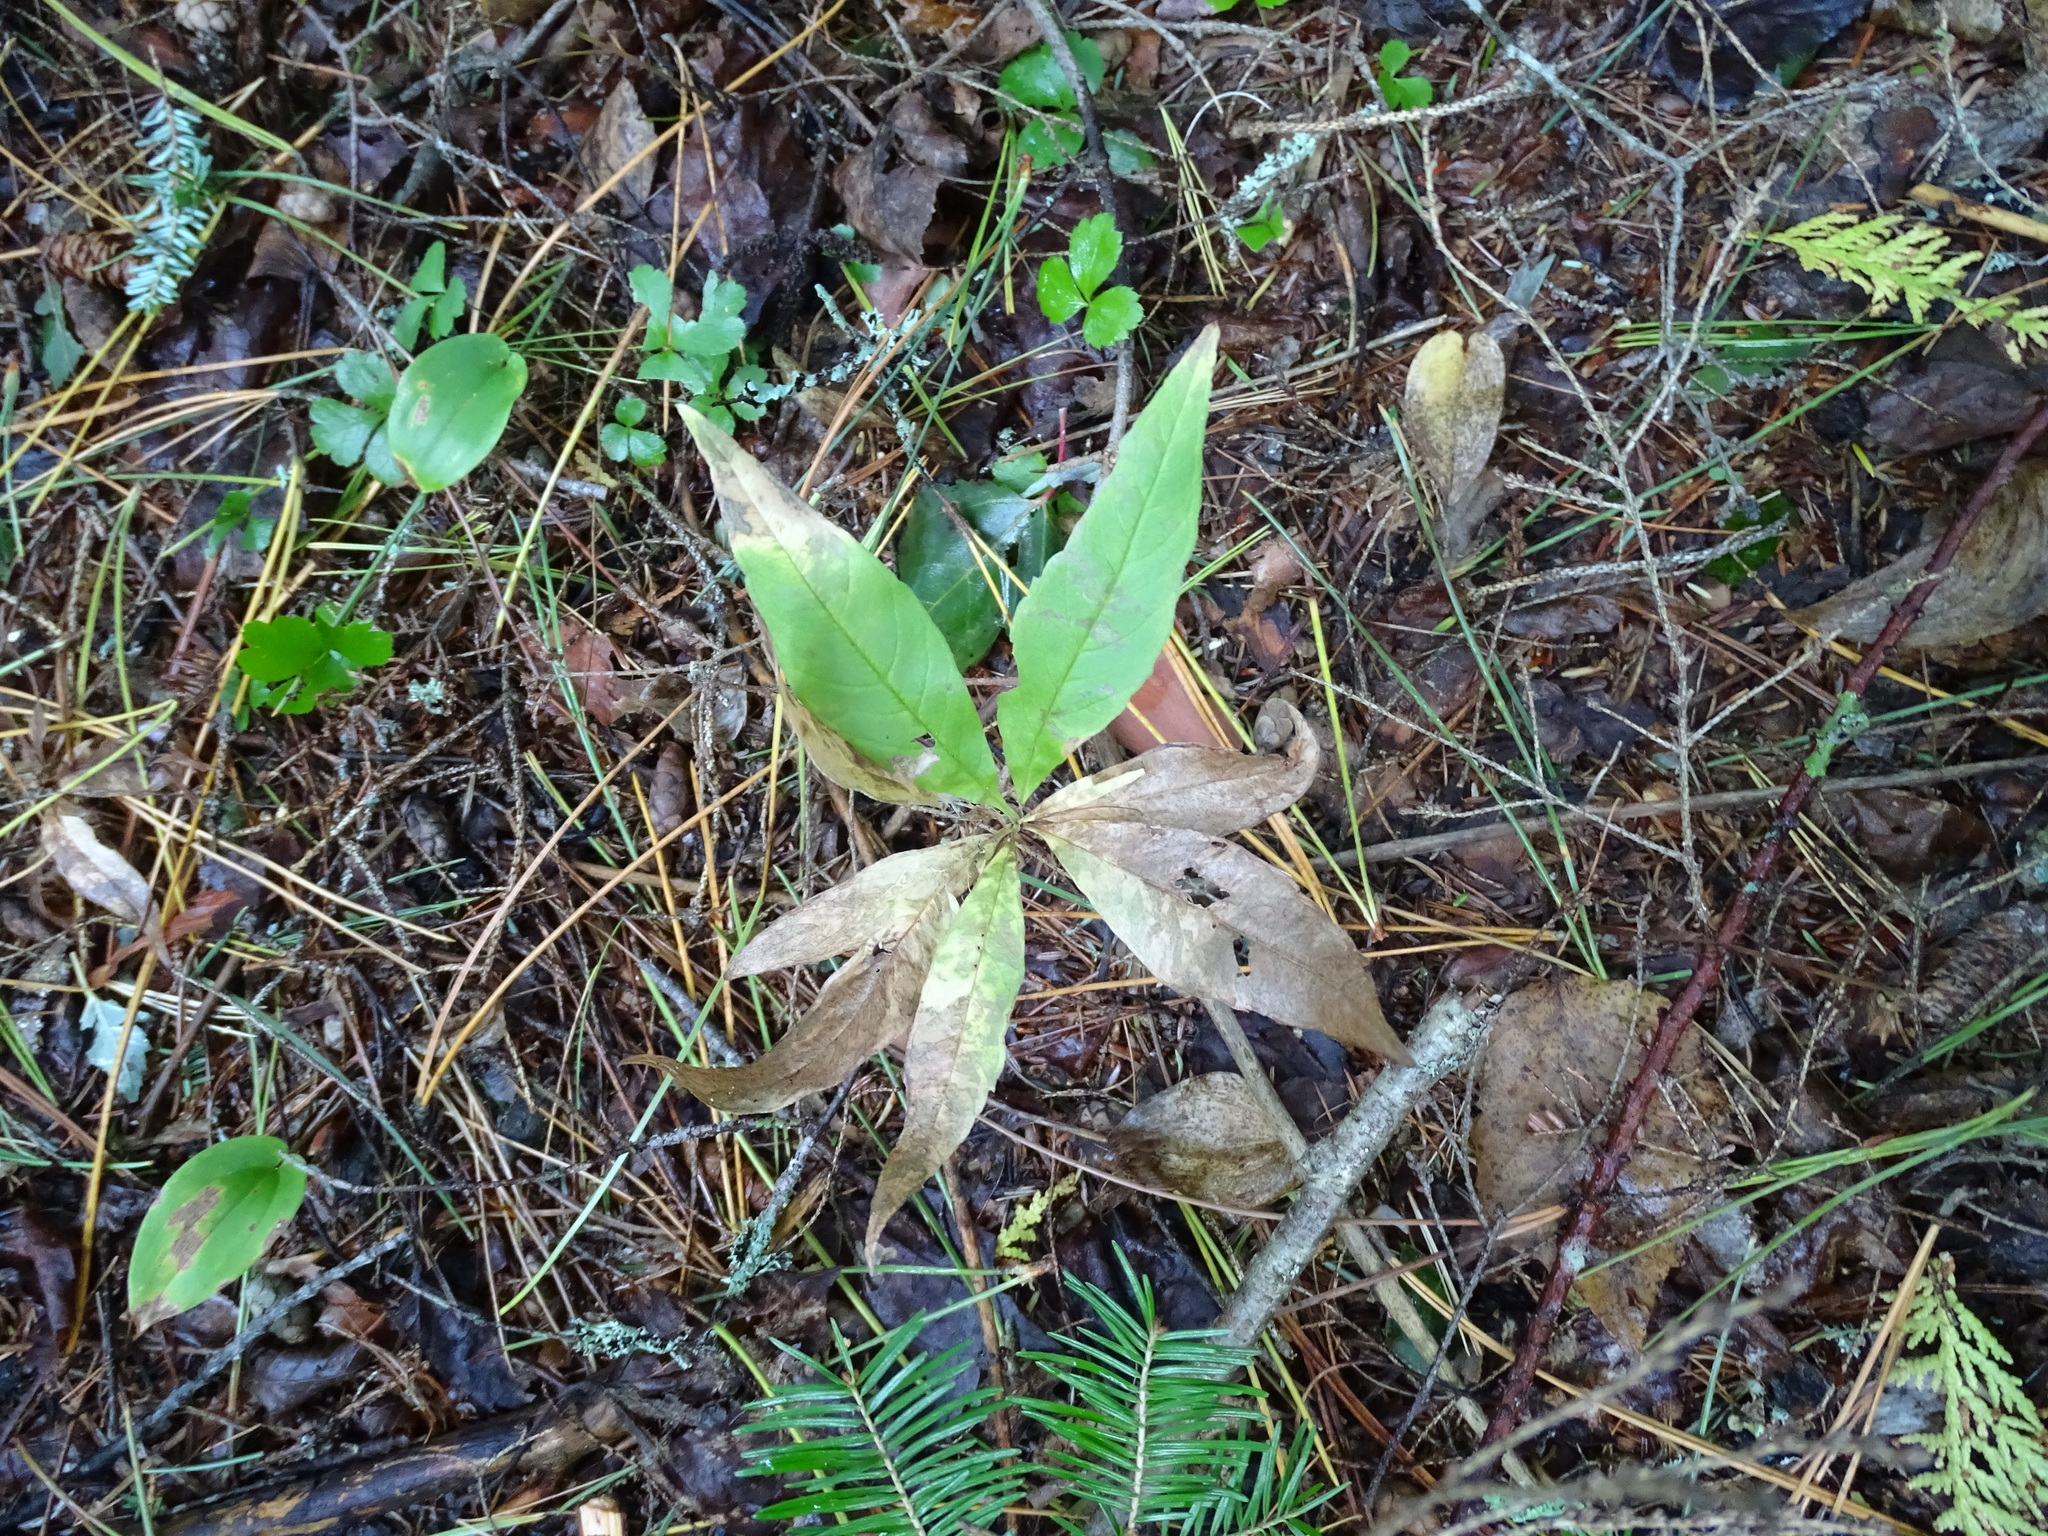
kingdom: Plantae
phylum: Tracheophyta
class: Magnoliopsida
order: Ericales
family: Primulaceae
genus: Lysimachia
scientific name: Lysimachia borealis
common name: American starflower
